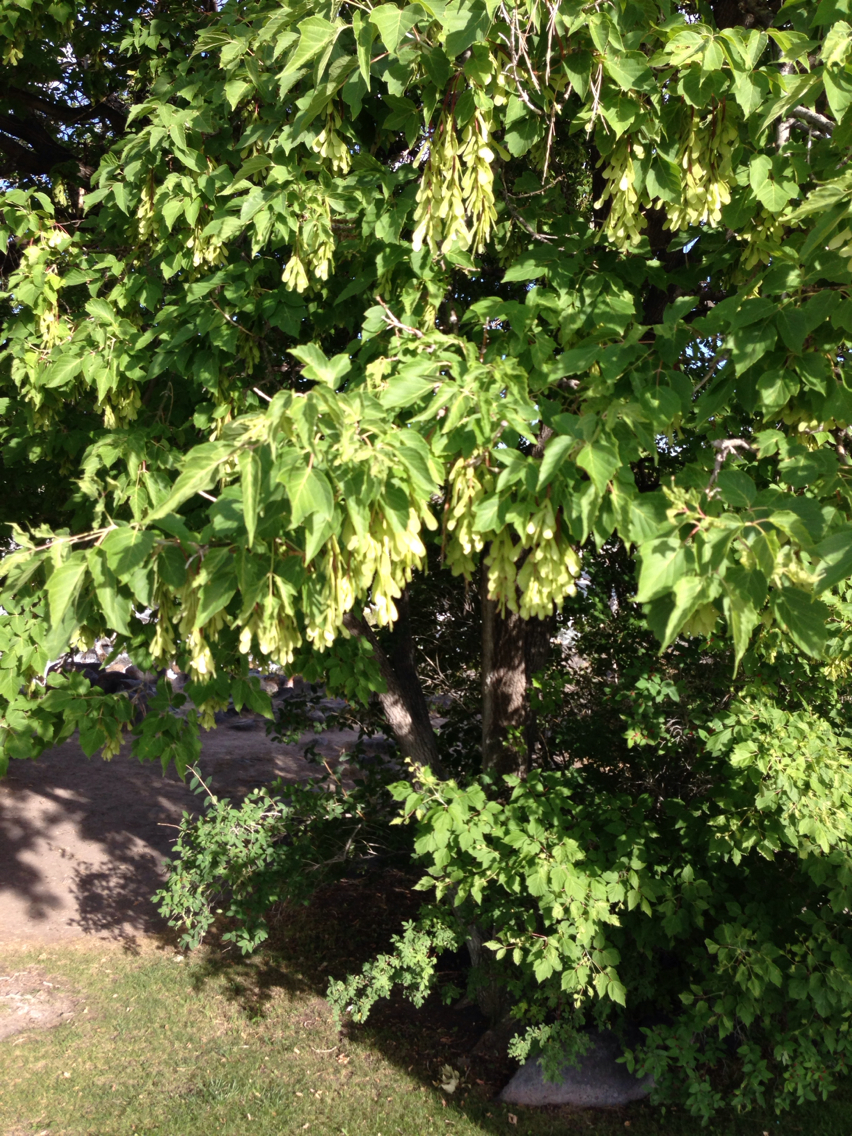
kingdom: Plantae
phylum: Tracheophyta
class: Magnoliopsida
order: Sapindales
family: Sapindaceae
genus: Acer
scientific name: Acer negundo
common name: Ashleaf maple
